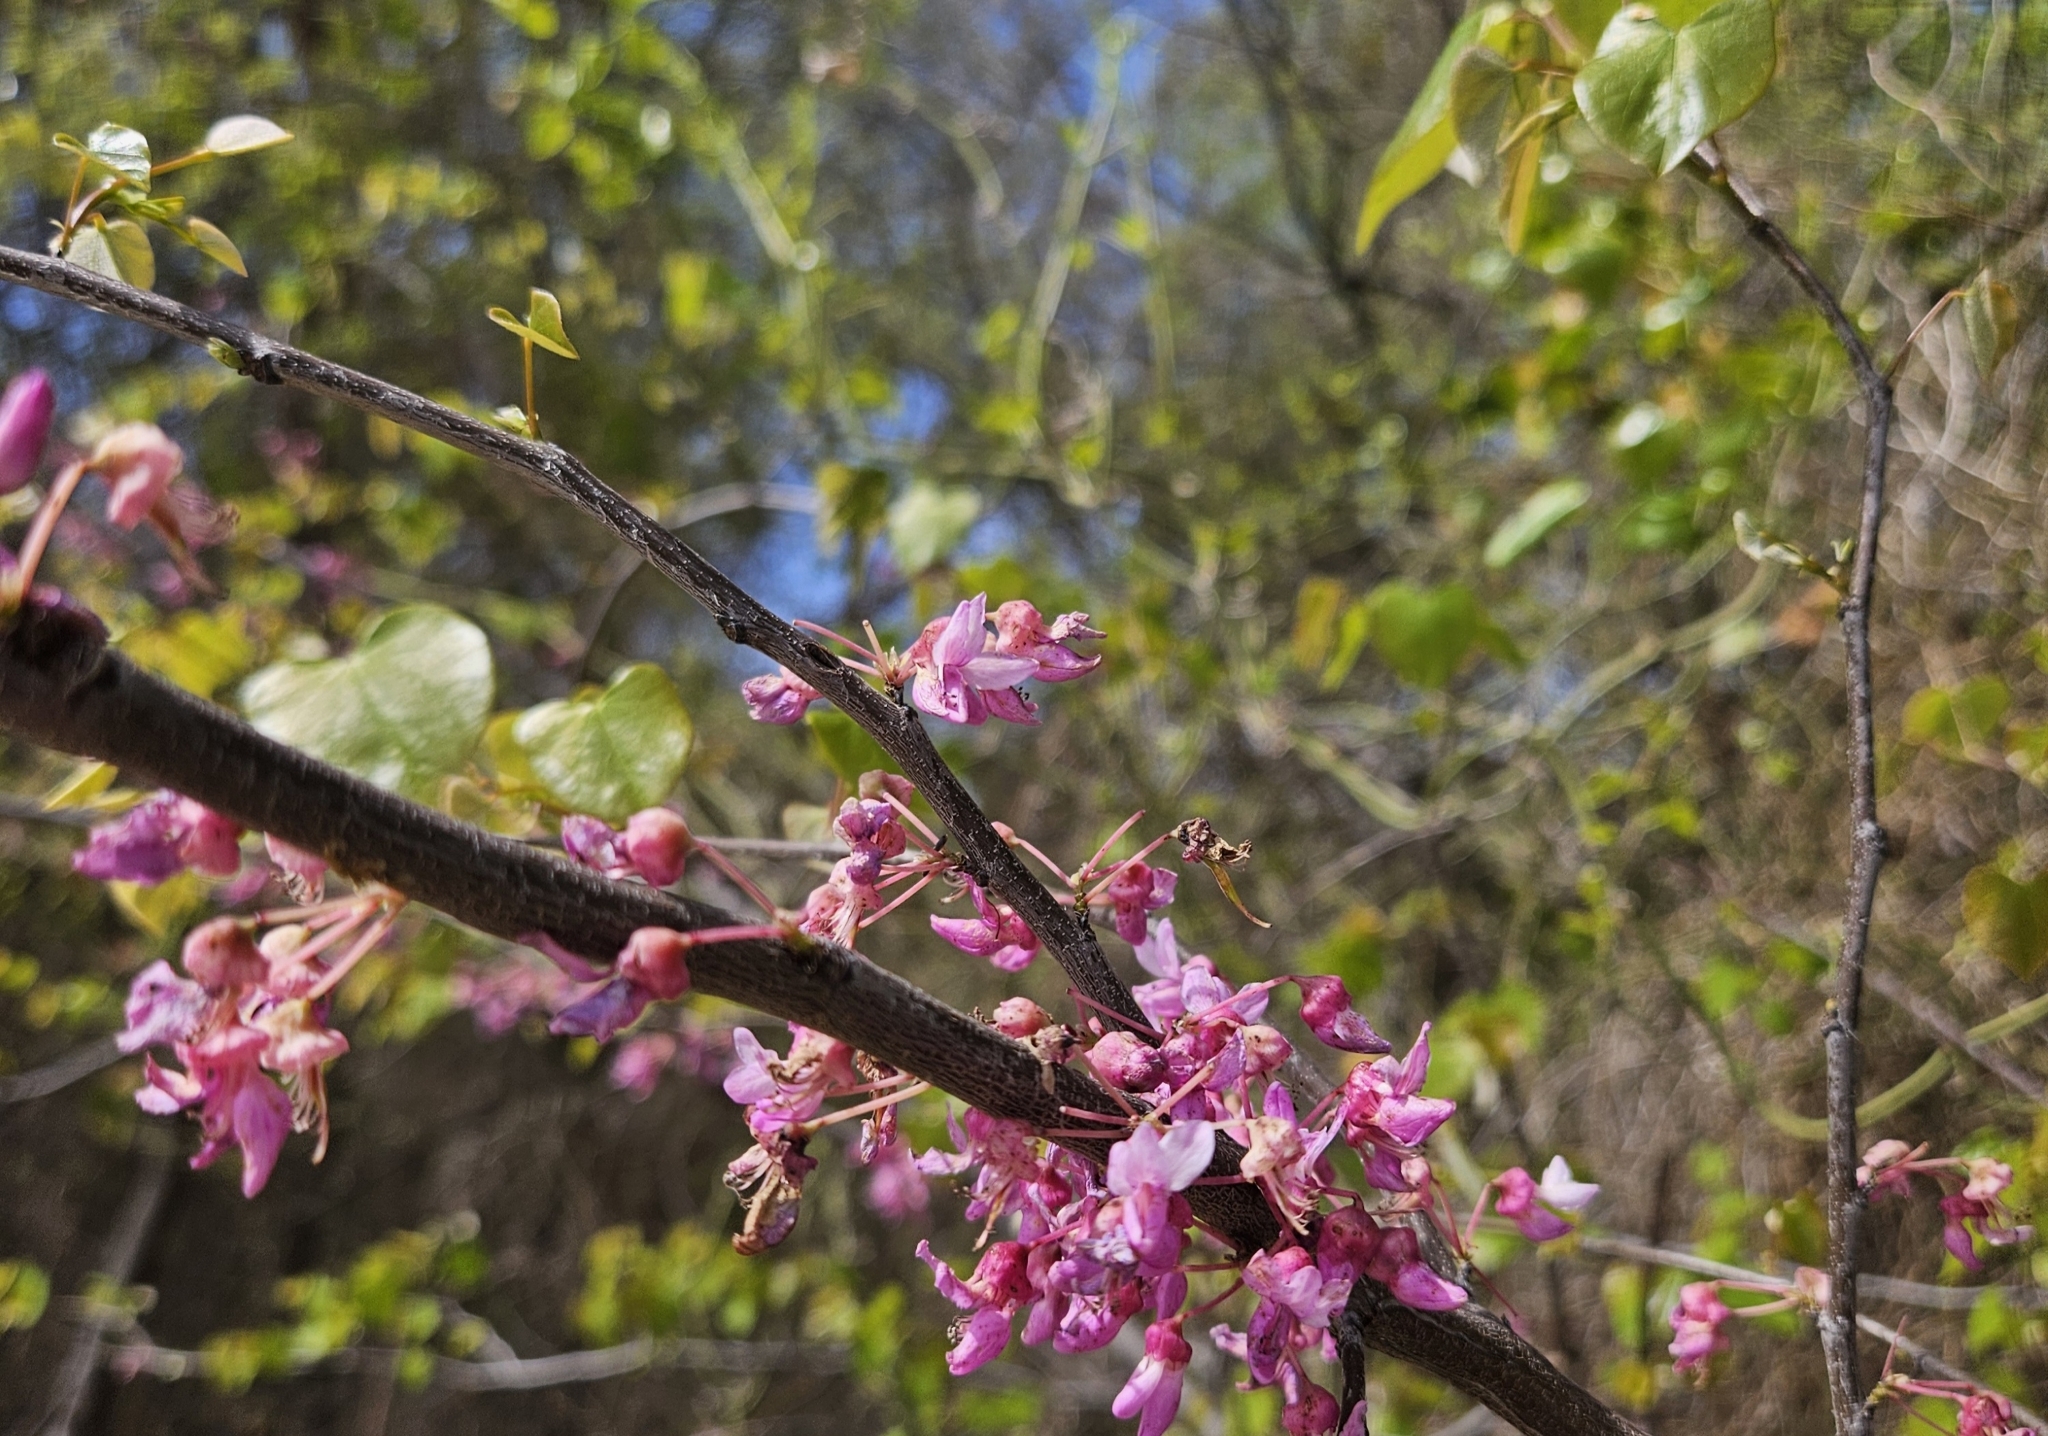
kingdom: Plantae
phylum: Tracheophyta
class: Magnoliopsida
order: Fabales
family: Fabaceae
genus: Cercis
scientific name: Cercis canadensis
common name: Eastern redbud
